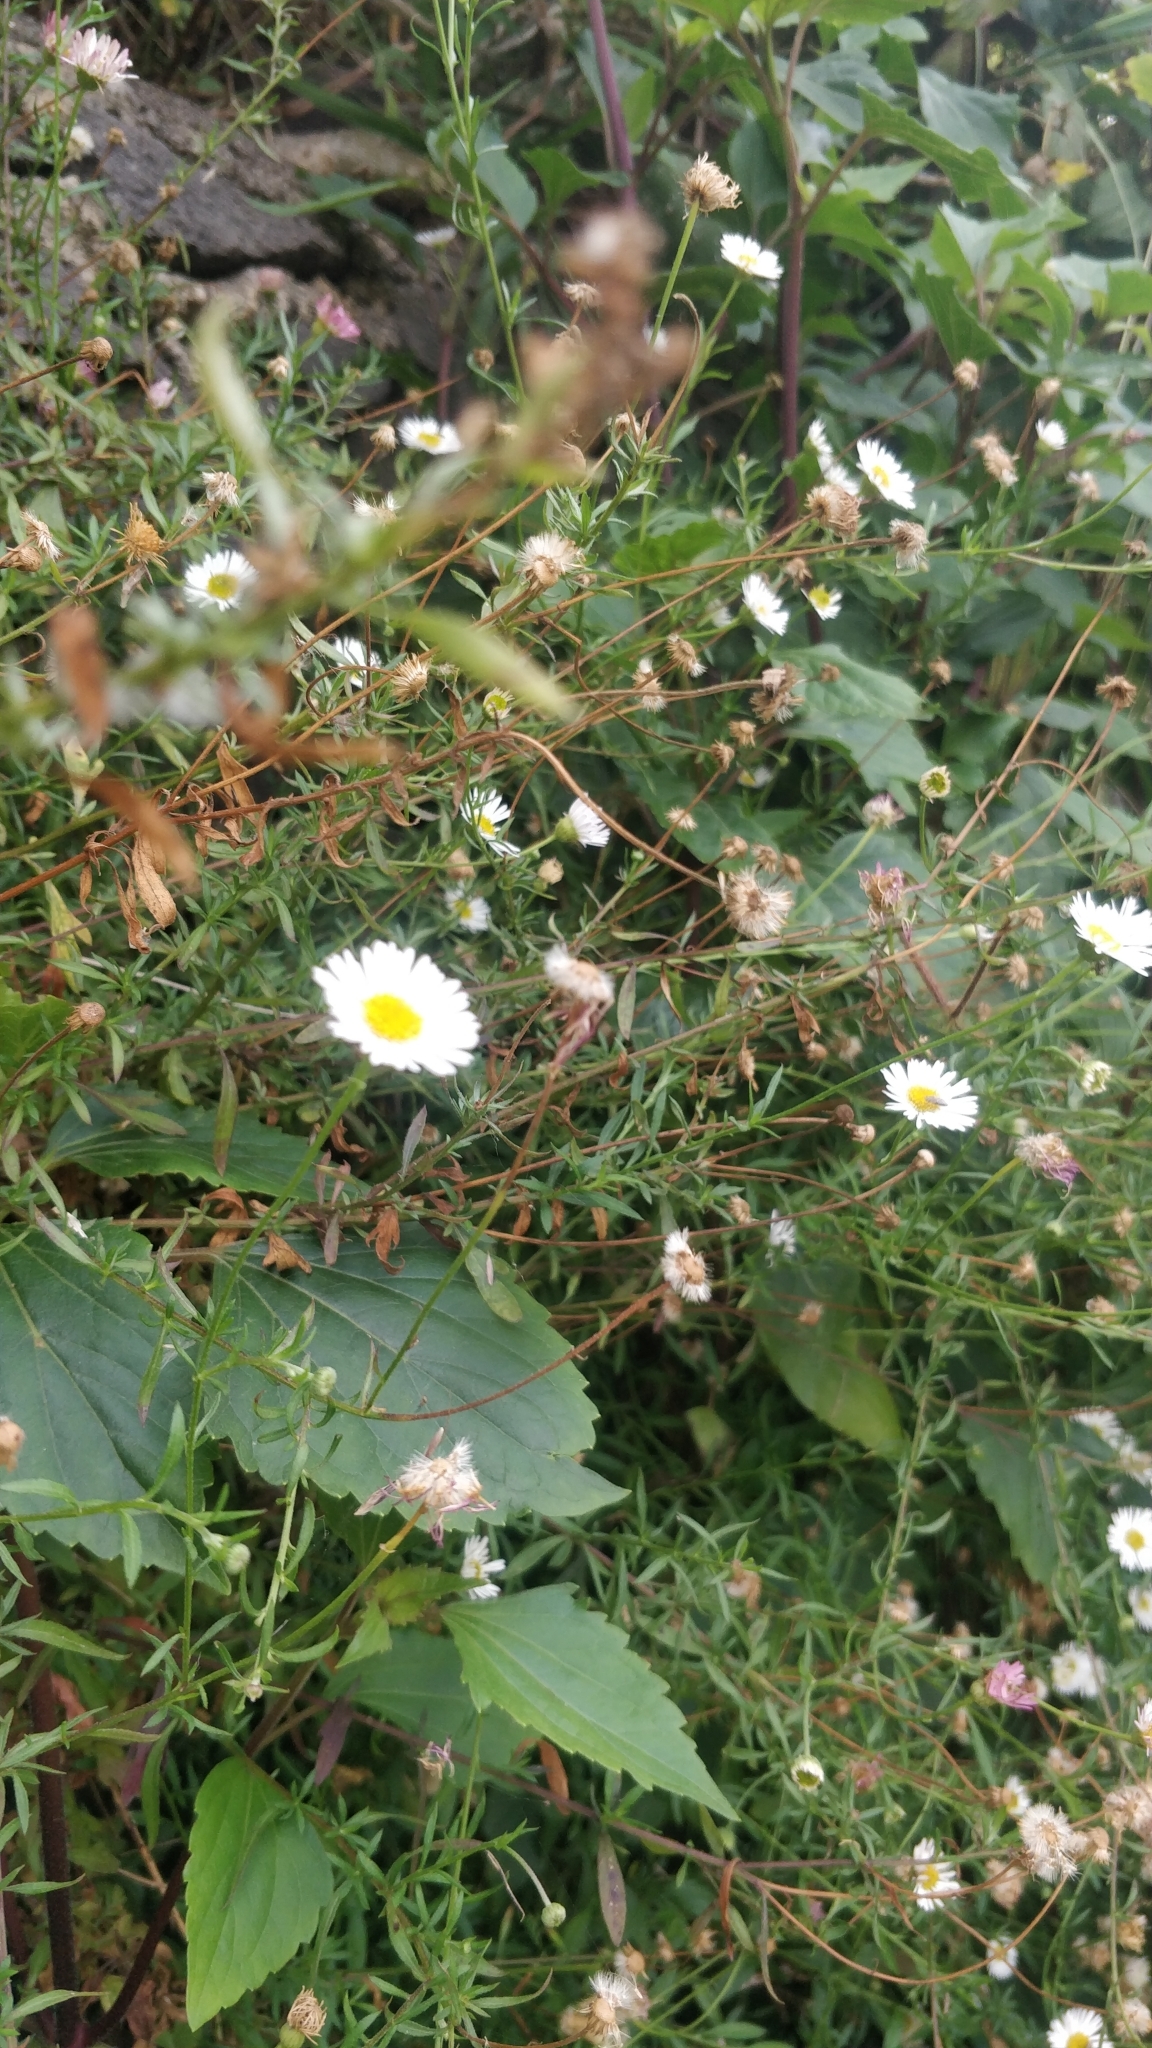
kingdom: Plantae
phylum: Tracheophyta
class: Magnoliopsida
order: Asterales
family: Asteraceae
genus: Erigeron
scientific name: Erigeron karvinskianus
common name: Mexican fleabane
